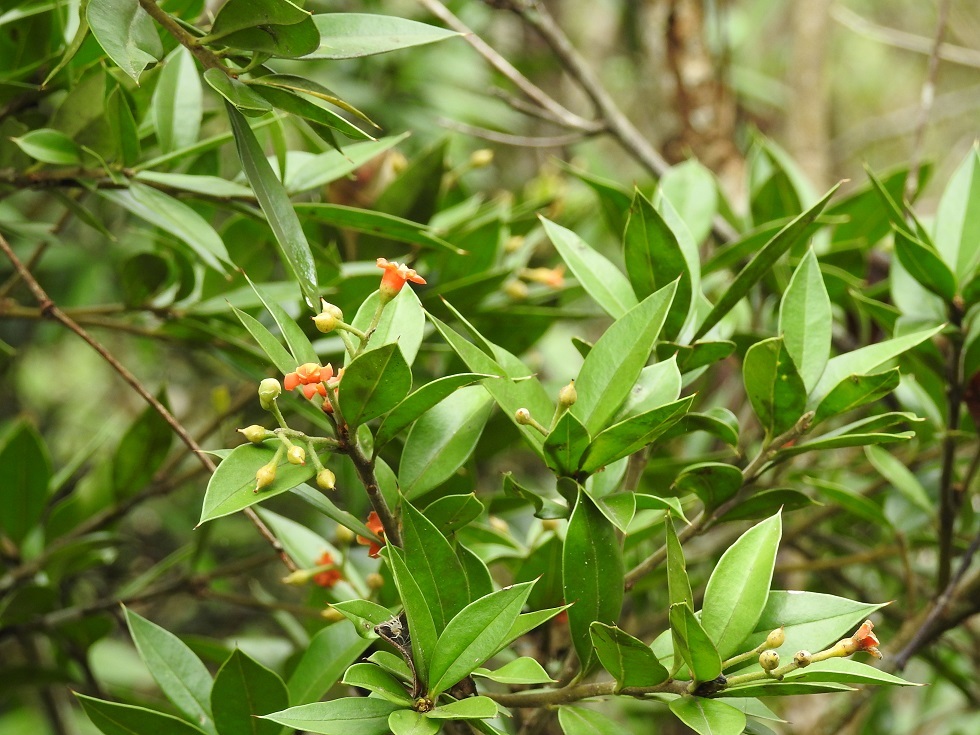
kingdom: Plantae
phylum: Tracheophyta
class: Magnoliopsida
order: Ericales
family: Primulaceae
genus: Bonellia
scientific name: Bonellia macrocarpa
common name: Primrose
